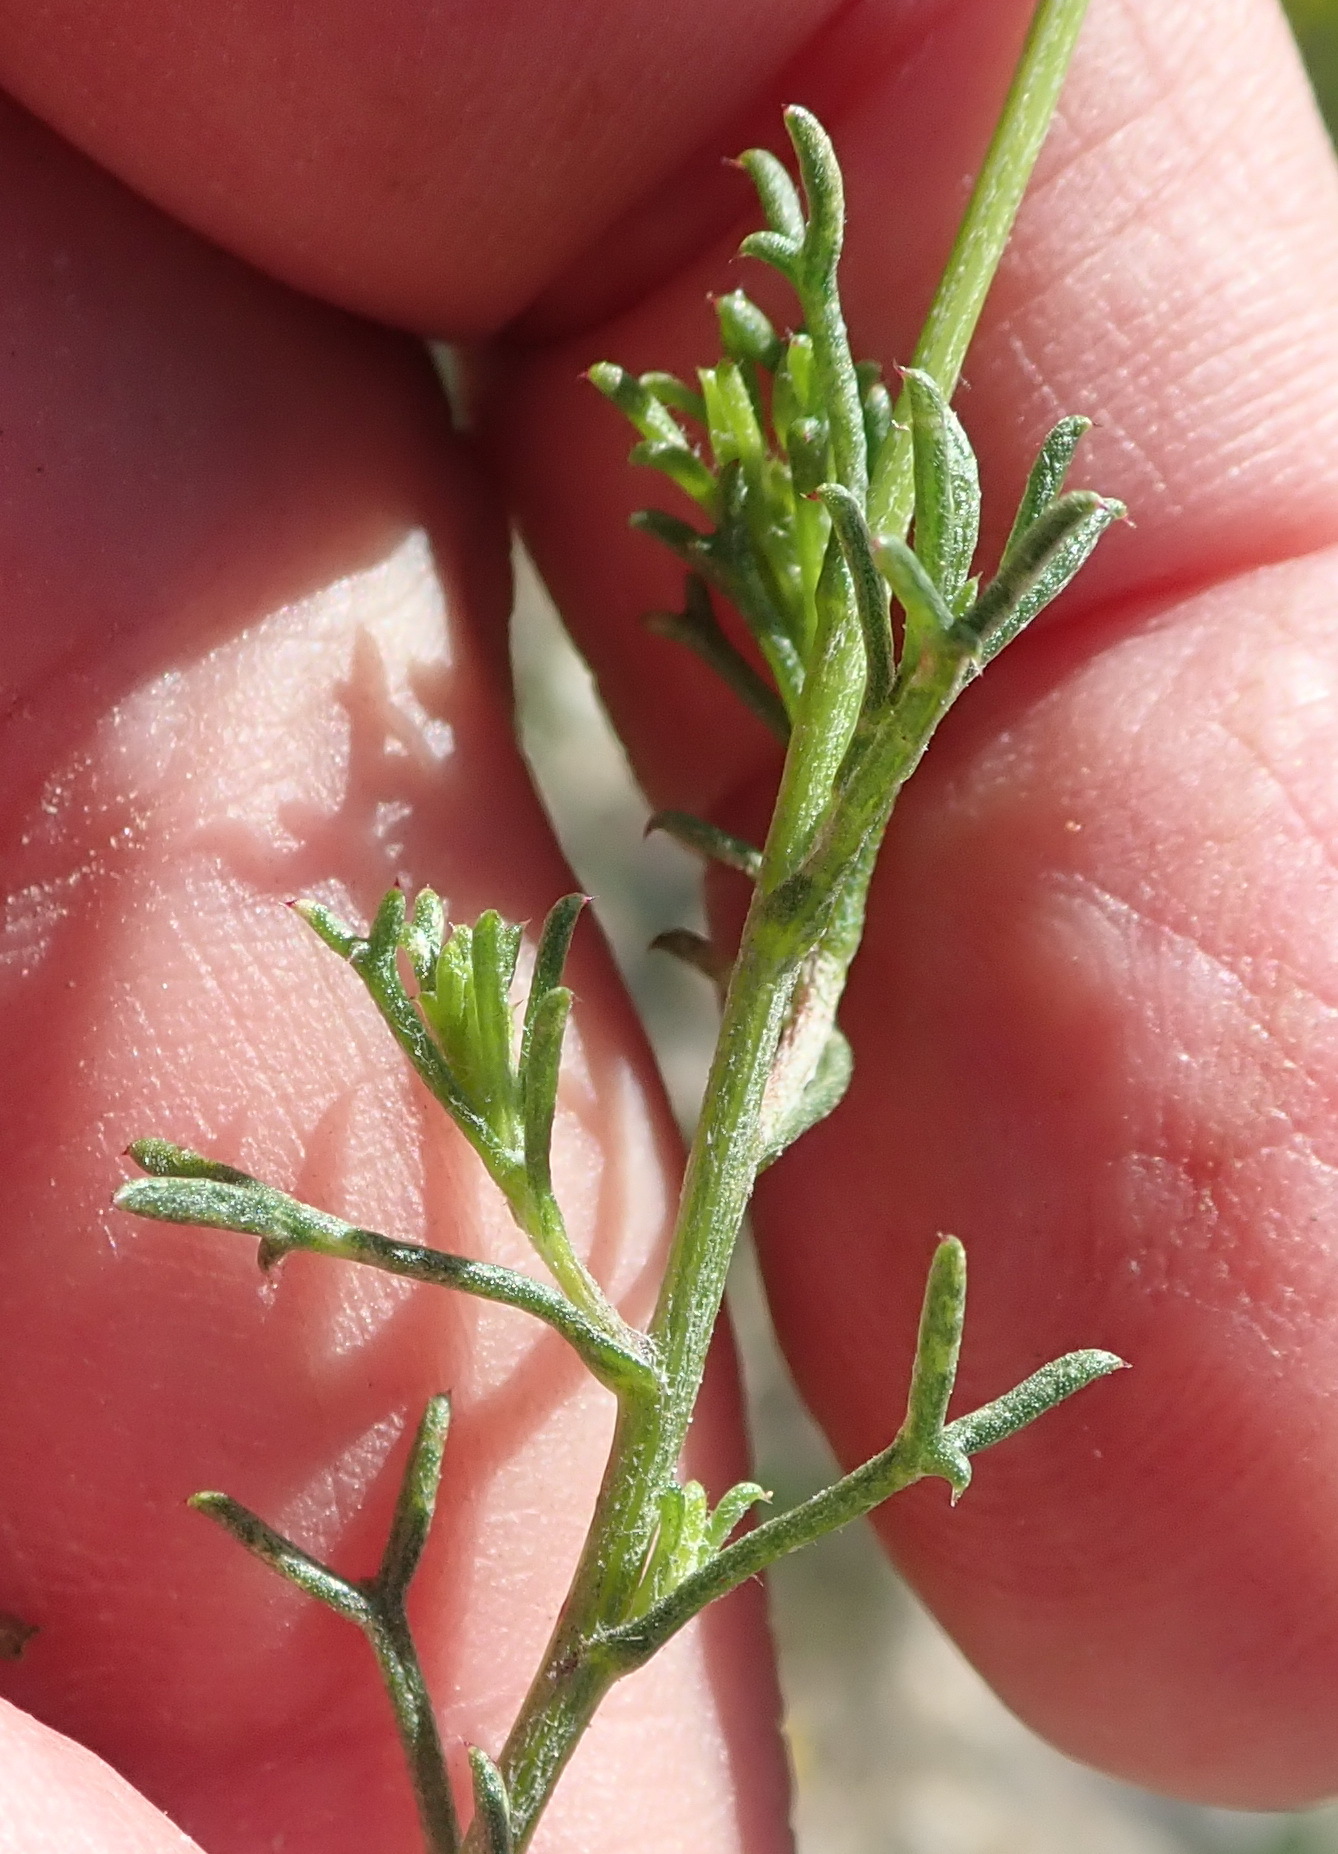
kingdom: Plantae
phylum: Tracheophyta
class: Magnoliopsida
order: Asterales
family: Asteraceae
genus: Ursinia
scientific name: Ursinia heterodonta
